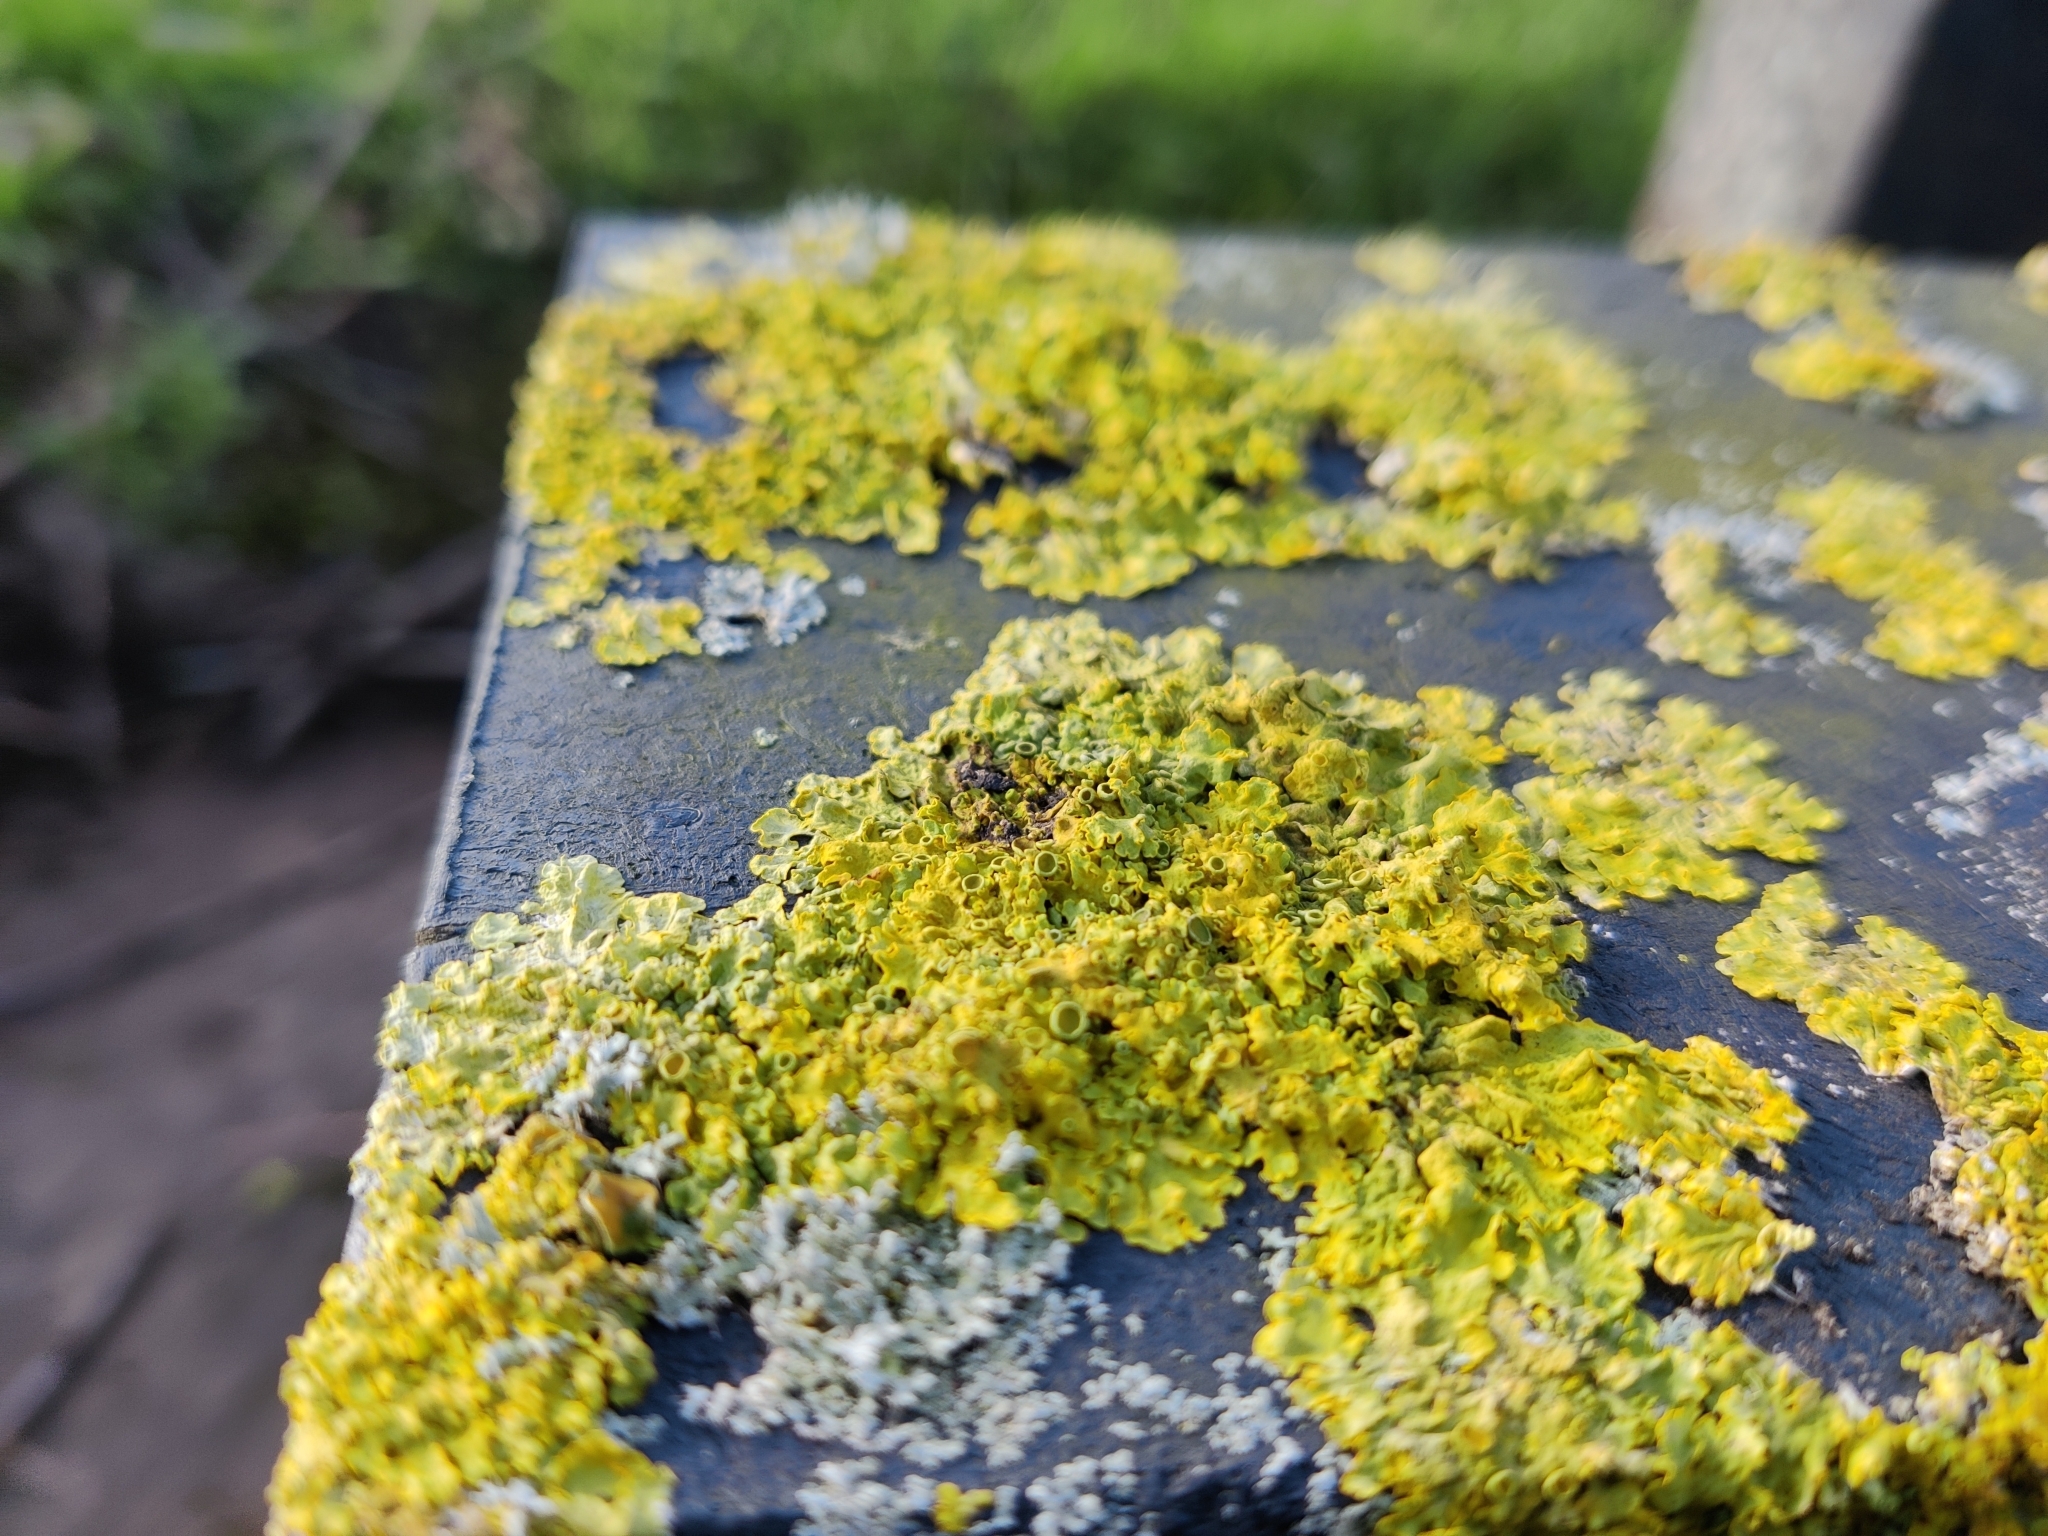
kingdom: Fungi
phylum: Ascomycota
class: Lecanoromycetes
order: Teloschistales
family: Teloschistaceae
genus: Xanthoria
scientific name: Xanthoria parietina
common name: Common orange lichen
